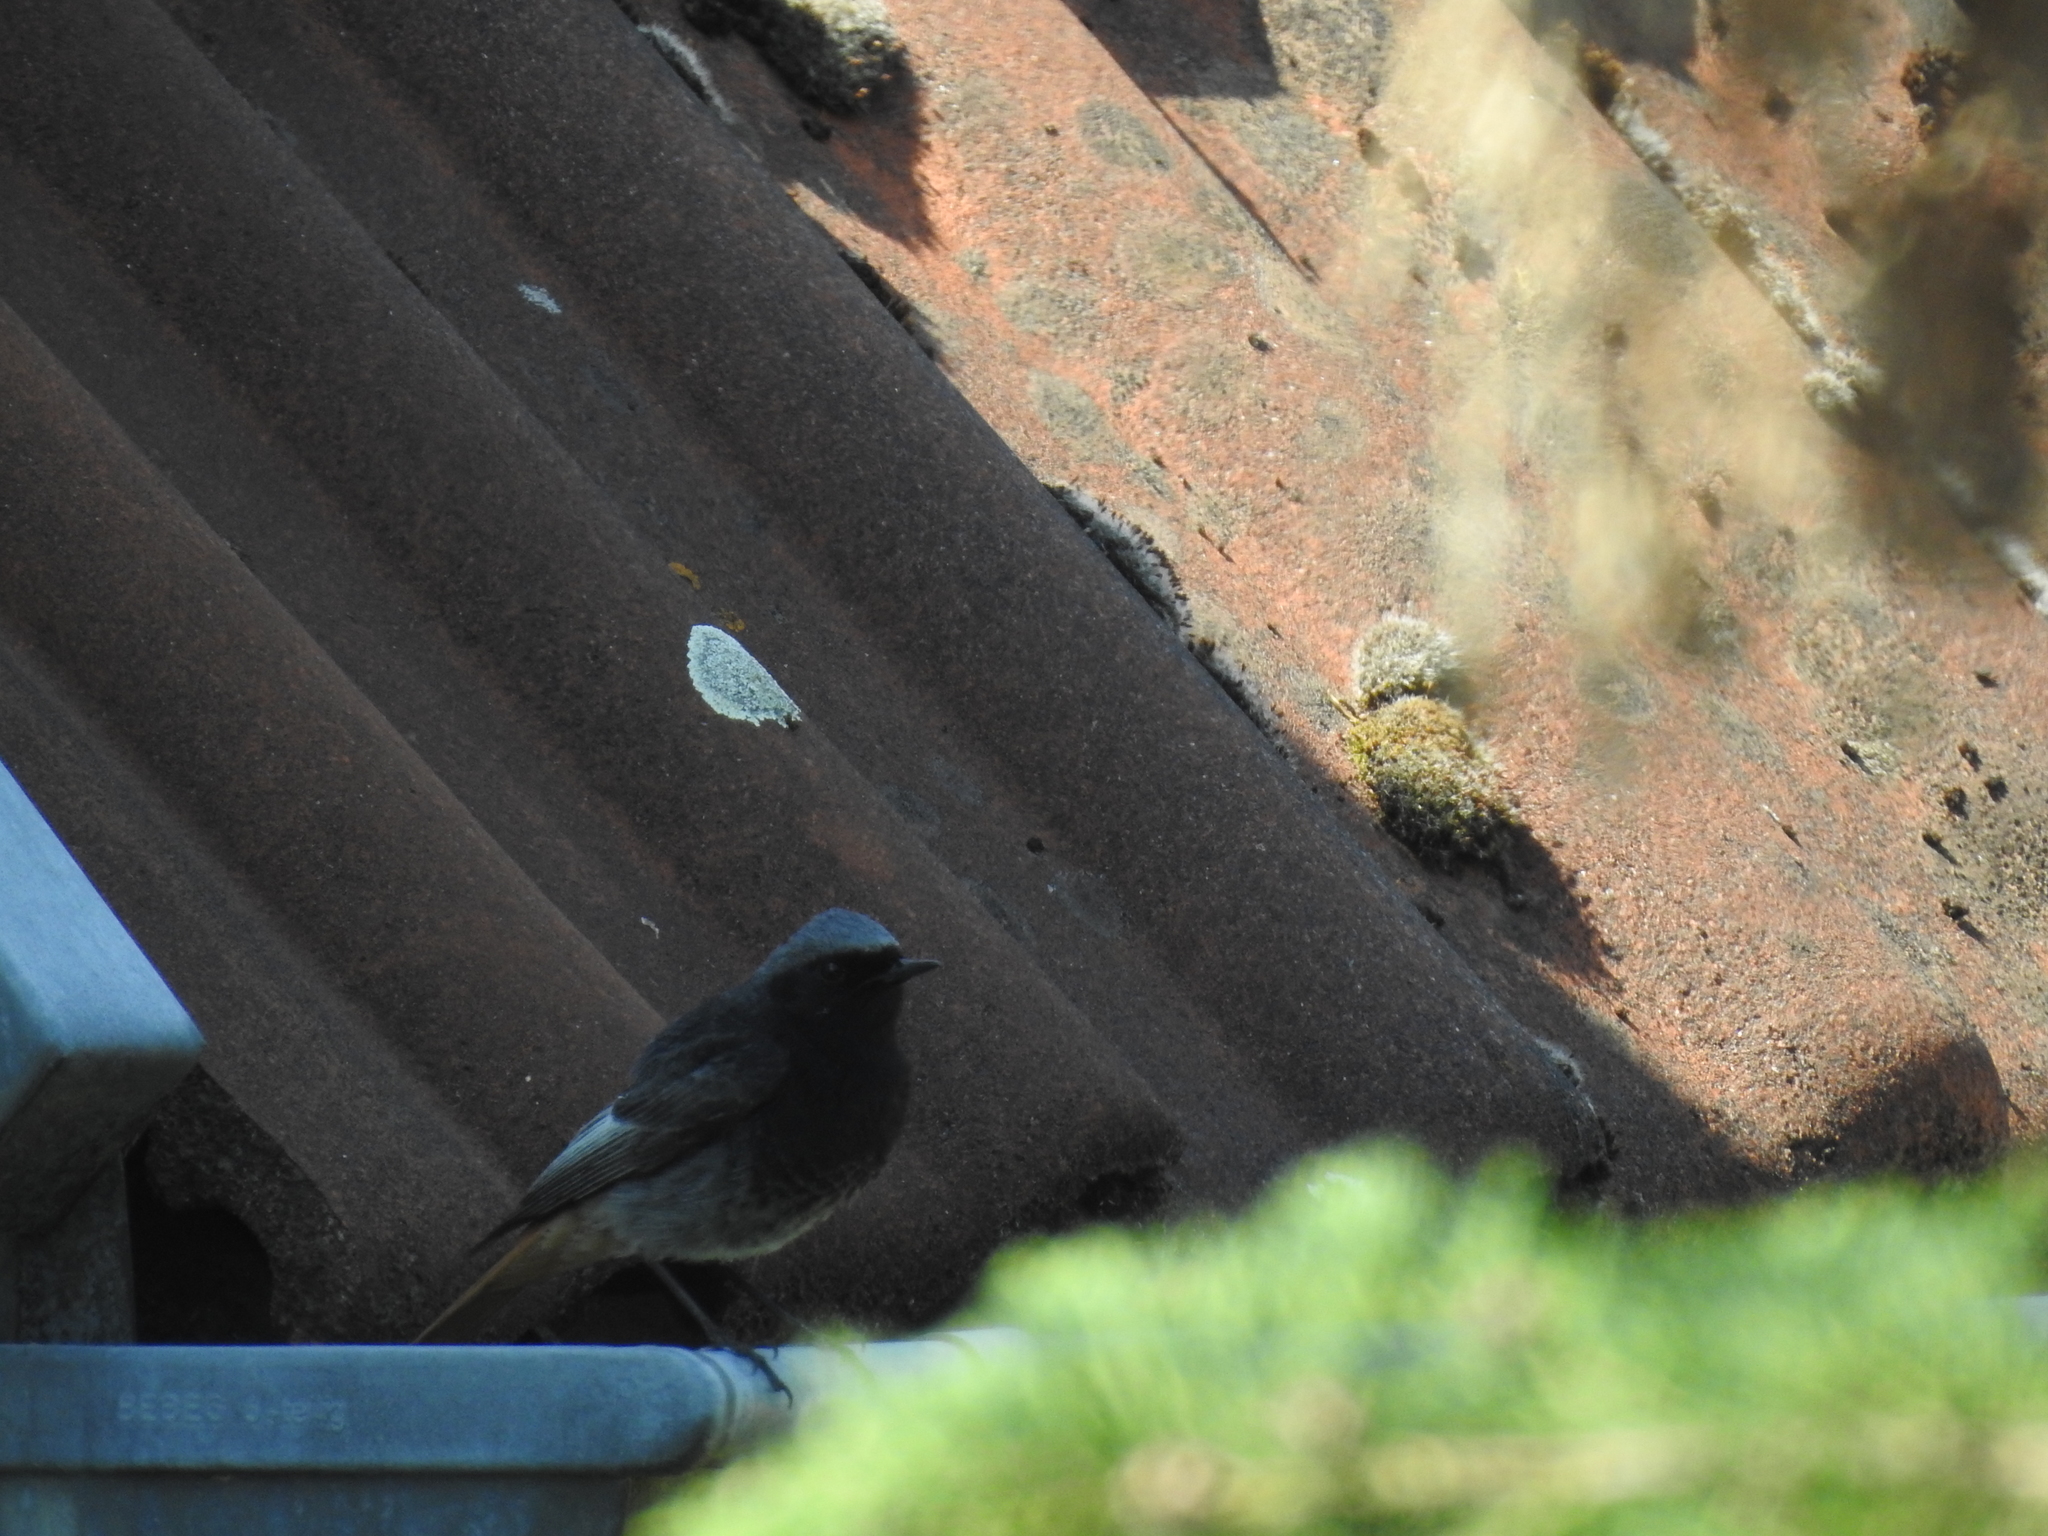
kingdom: Animalia
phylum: Chordata
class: Aves
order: Passeriformes
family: Muscicapidae
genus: Phoenicurus
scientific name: Phoenicurus ochruros
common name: Black redstart
